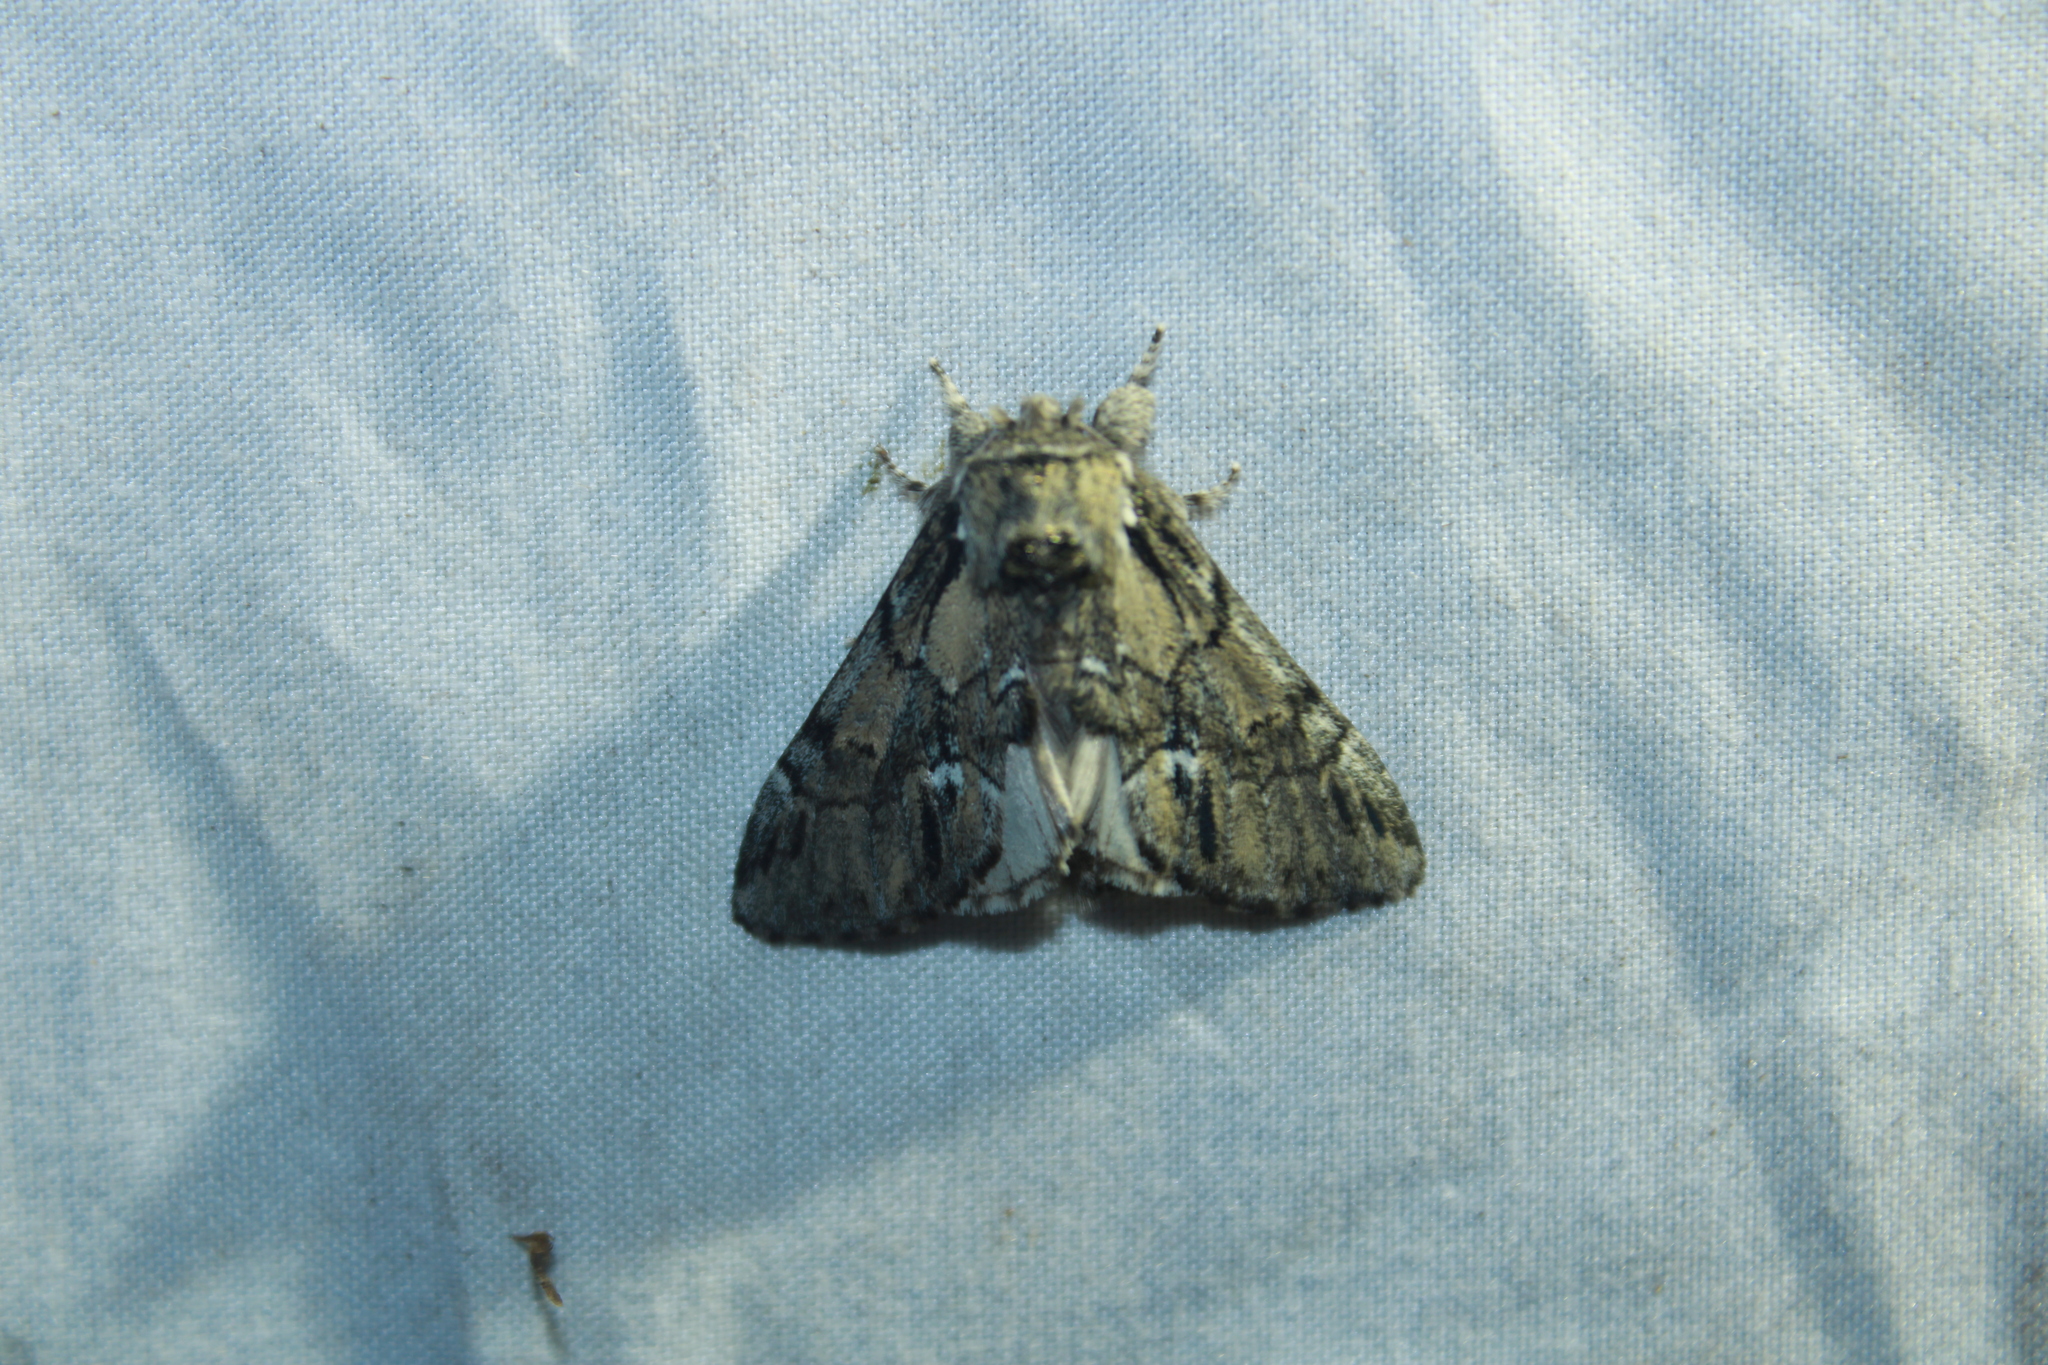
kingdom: Animalia
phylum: Arthropoda
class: Insecta
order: Lepidoptera
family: Notodontidae
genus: Paraeschra
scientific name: Paraeschra georgica
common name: Georgian prominent
